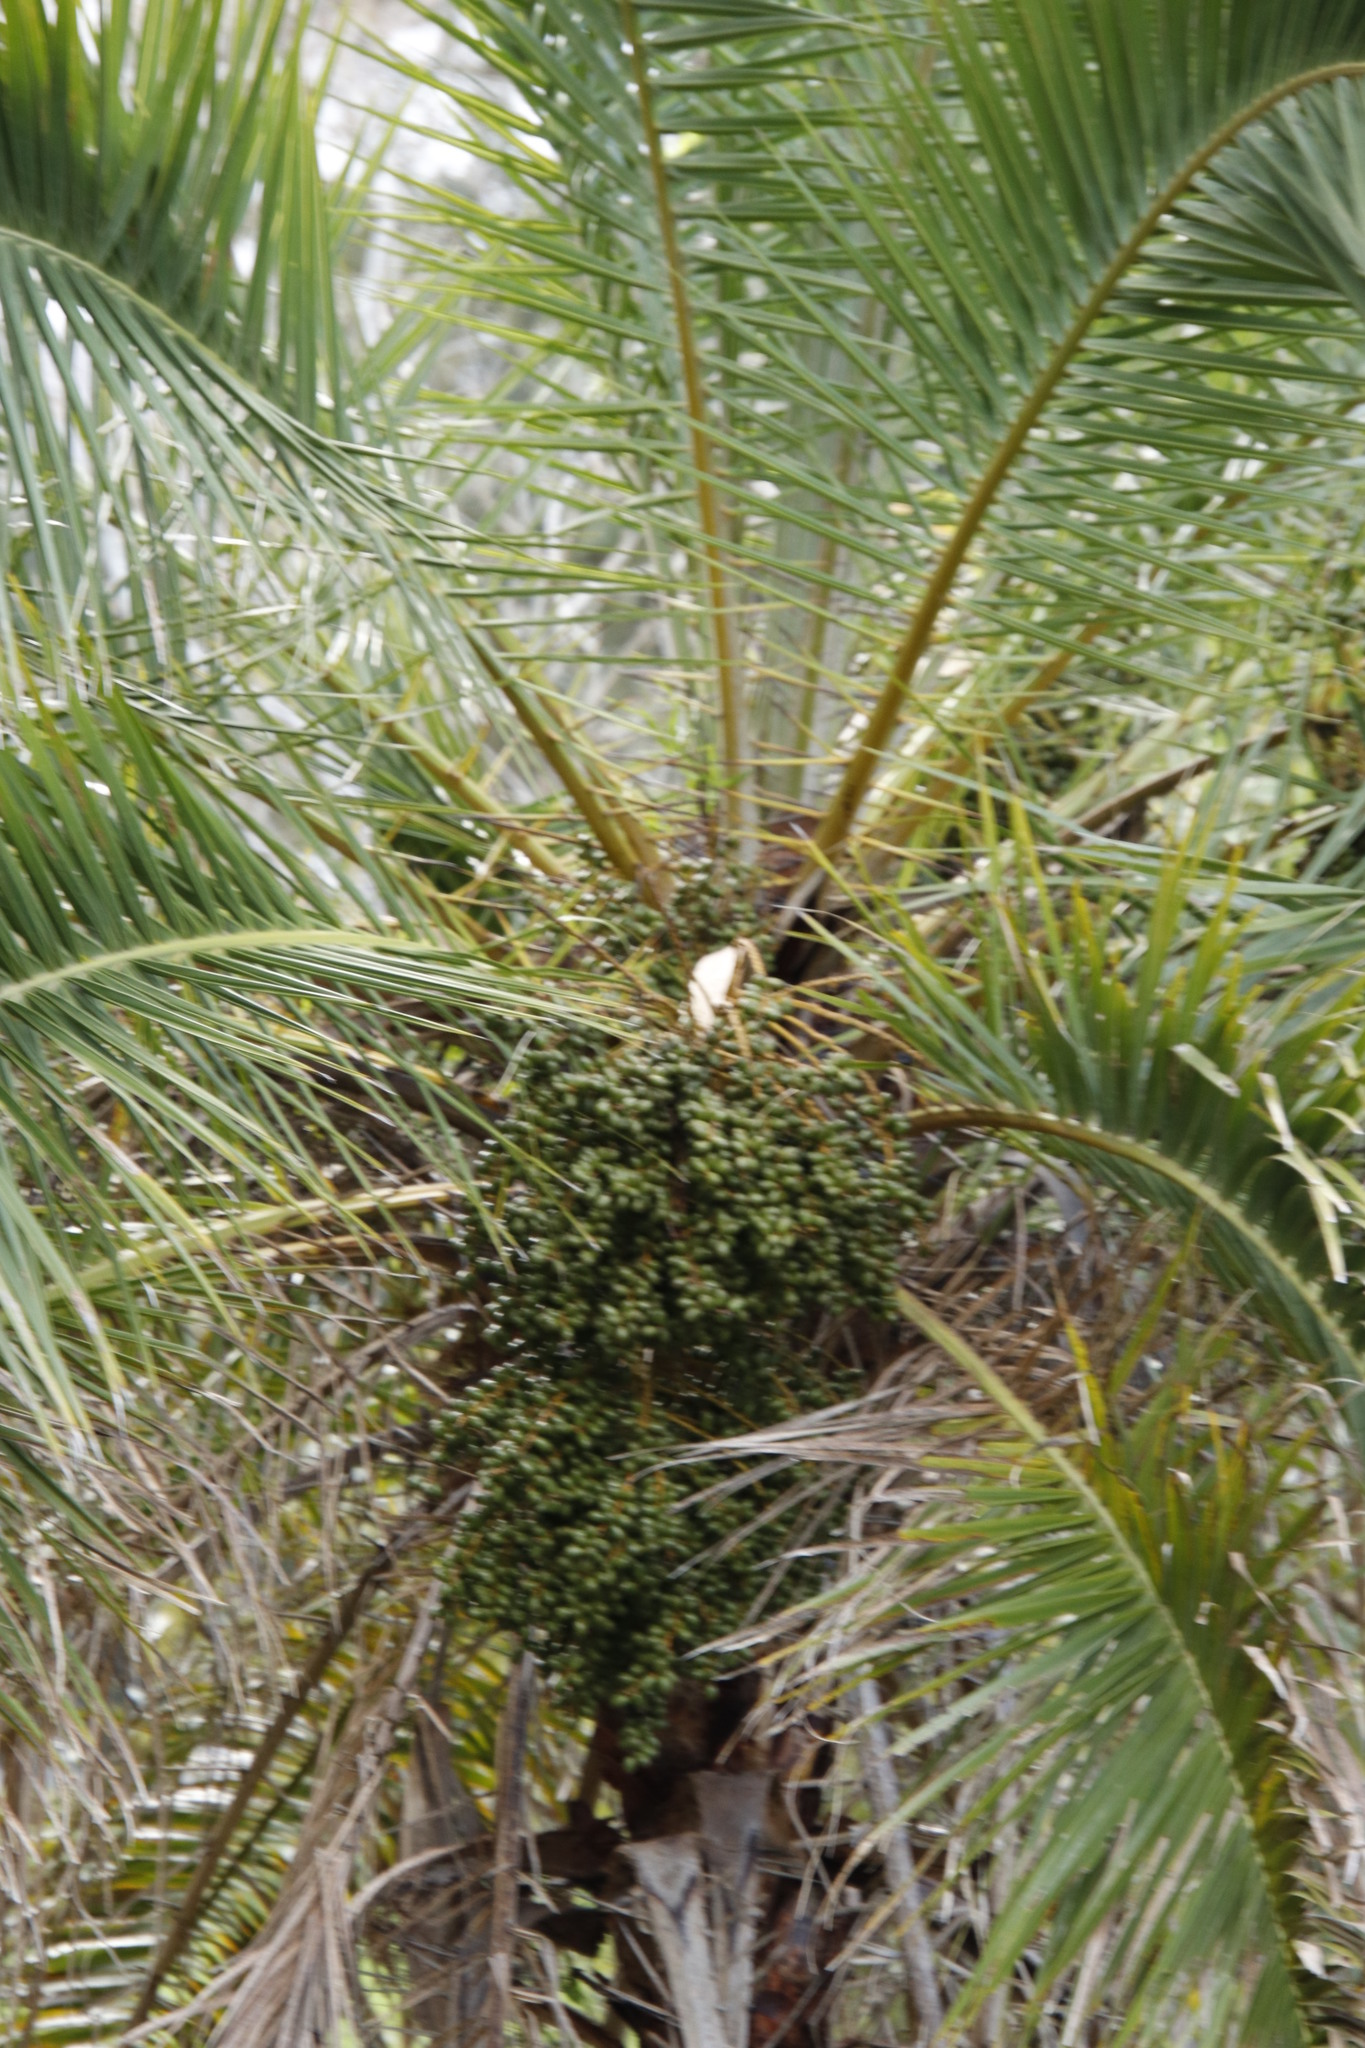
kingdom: Plantae
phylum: Tracheophyta
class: Liliopsida
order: Arecales
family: Arecaceae
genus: Phoenix
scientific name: Phoenix reclinata
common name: Senegal date palm
